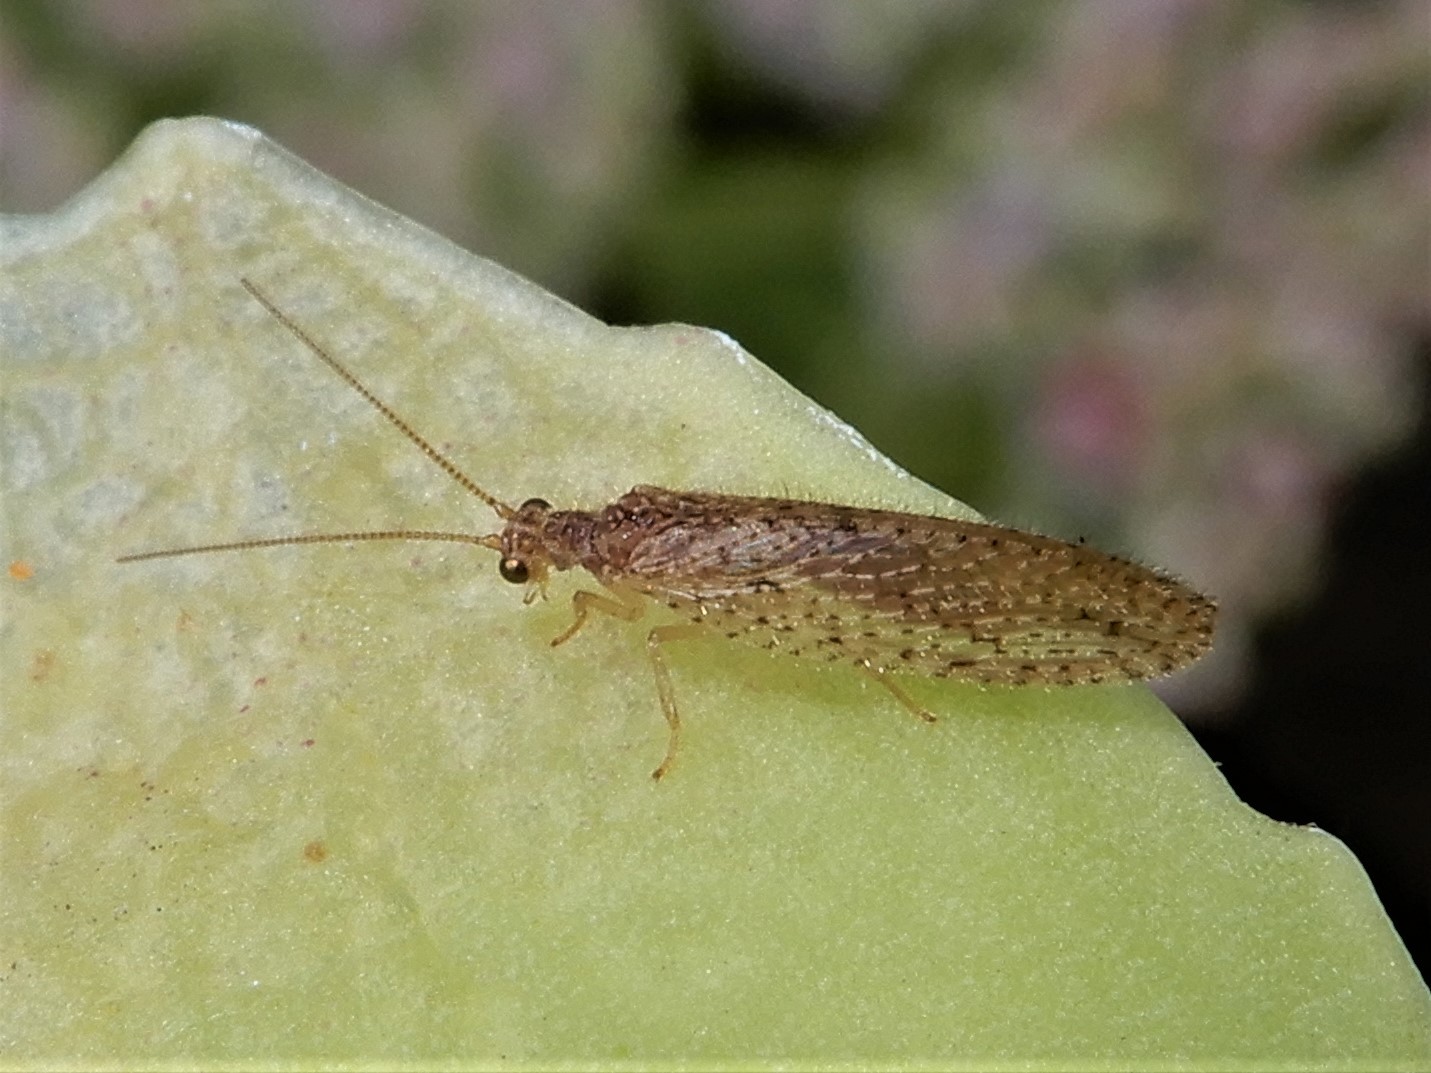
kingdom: Animalia
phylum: Arthropoda
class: Insecta
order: Neuroptera
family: Hemerobiidae
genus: Micromus
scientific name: Micromus tasmaniae
